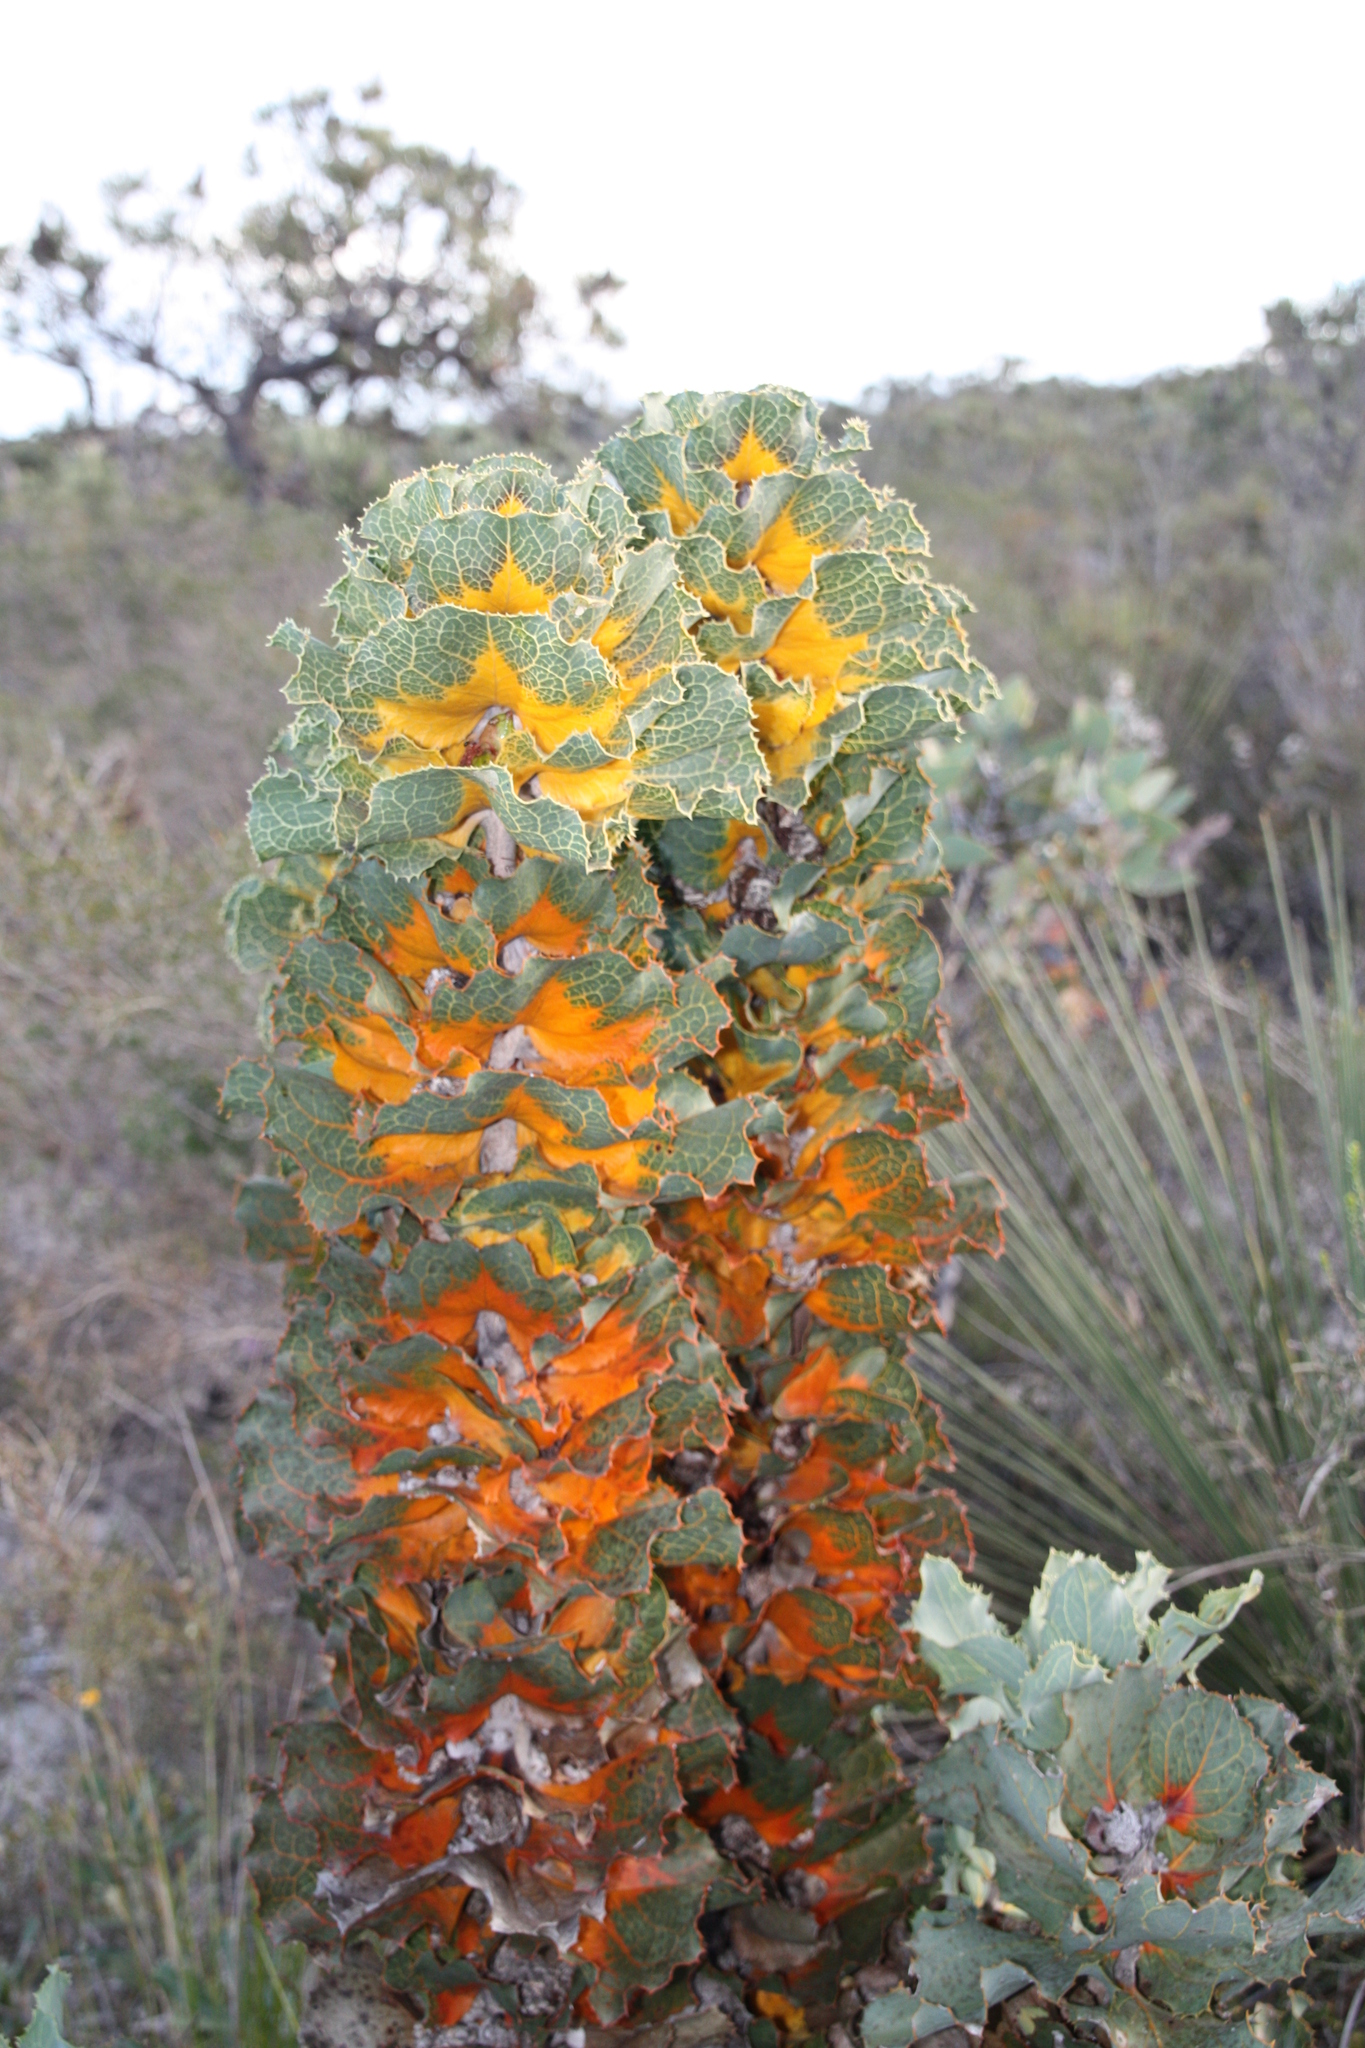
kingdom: Plantae
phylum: Tracheophyta
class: Magnoliopsida
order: Proteales
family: Proteaceae
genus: Hakea
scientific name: Hakea victoria
